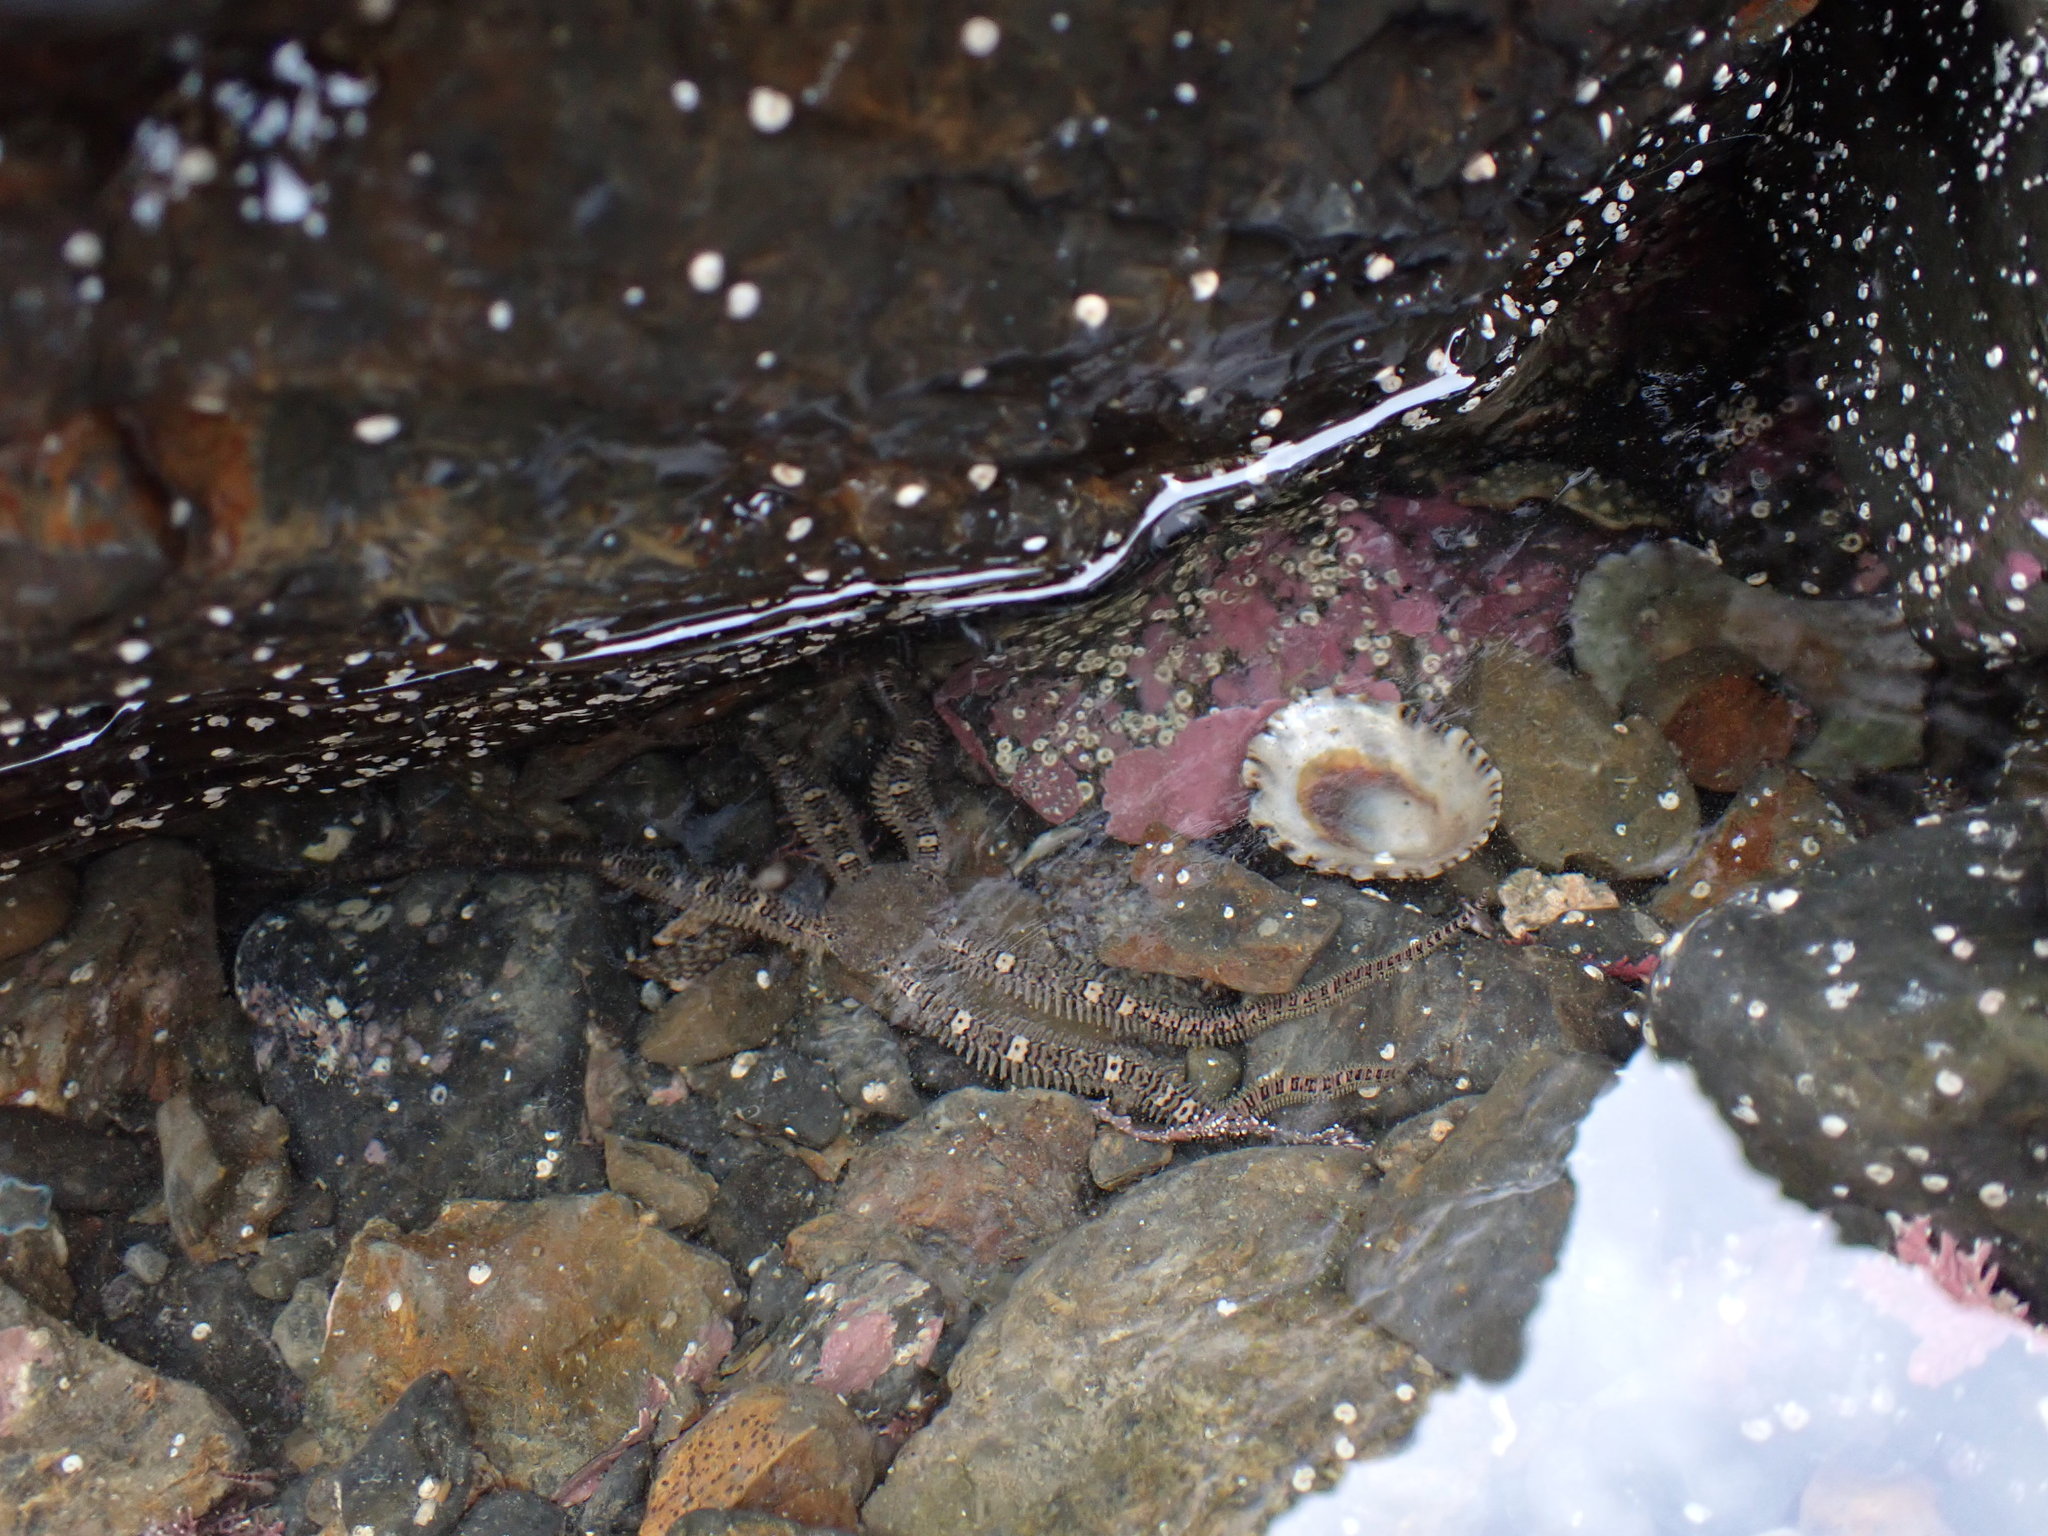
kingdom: Animalia
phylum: Echinodermata
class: Ophiuroidea
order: Amphilepidida
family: Ophionereididae
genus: Ophionereis
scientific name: Ophionereis fasciata
